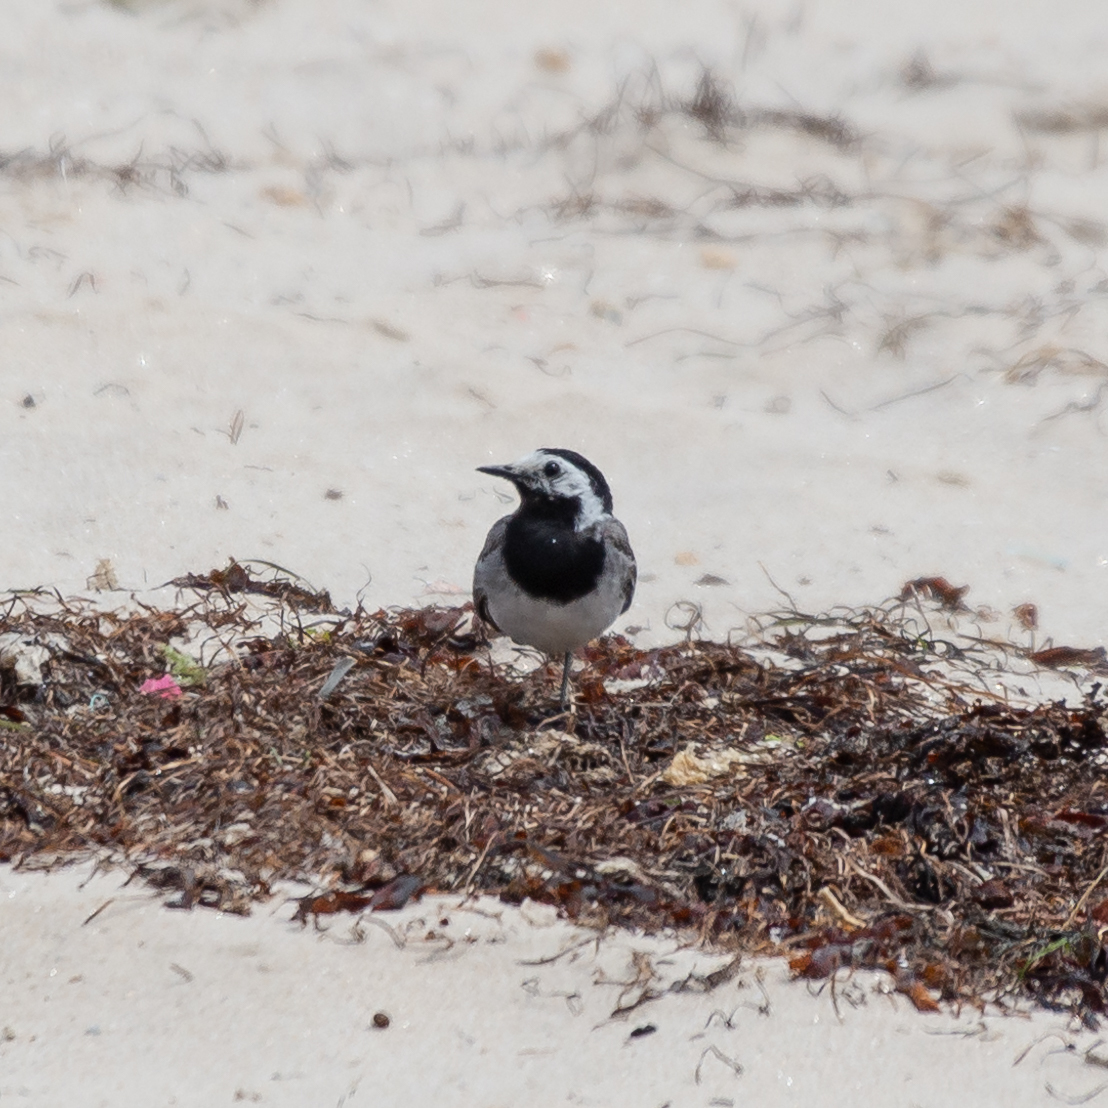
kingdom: Animalia
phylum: Chordata
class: Aves
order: Passeriformes
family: Motacillidae
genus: Motacilla
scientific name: Motacilla alba
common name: White wagtail
